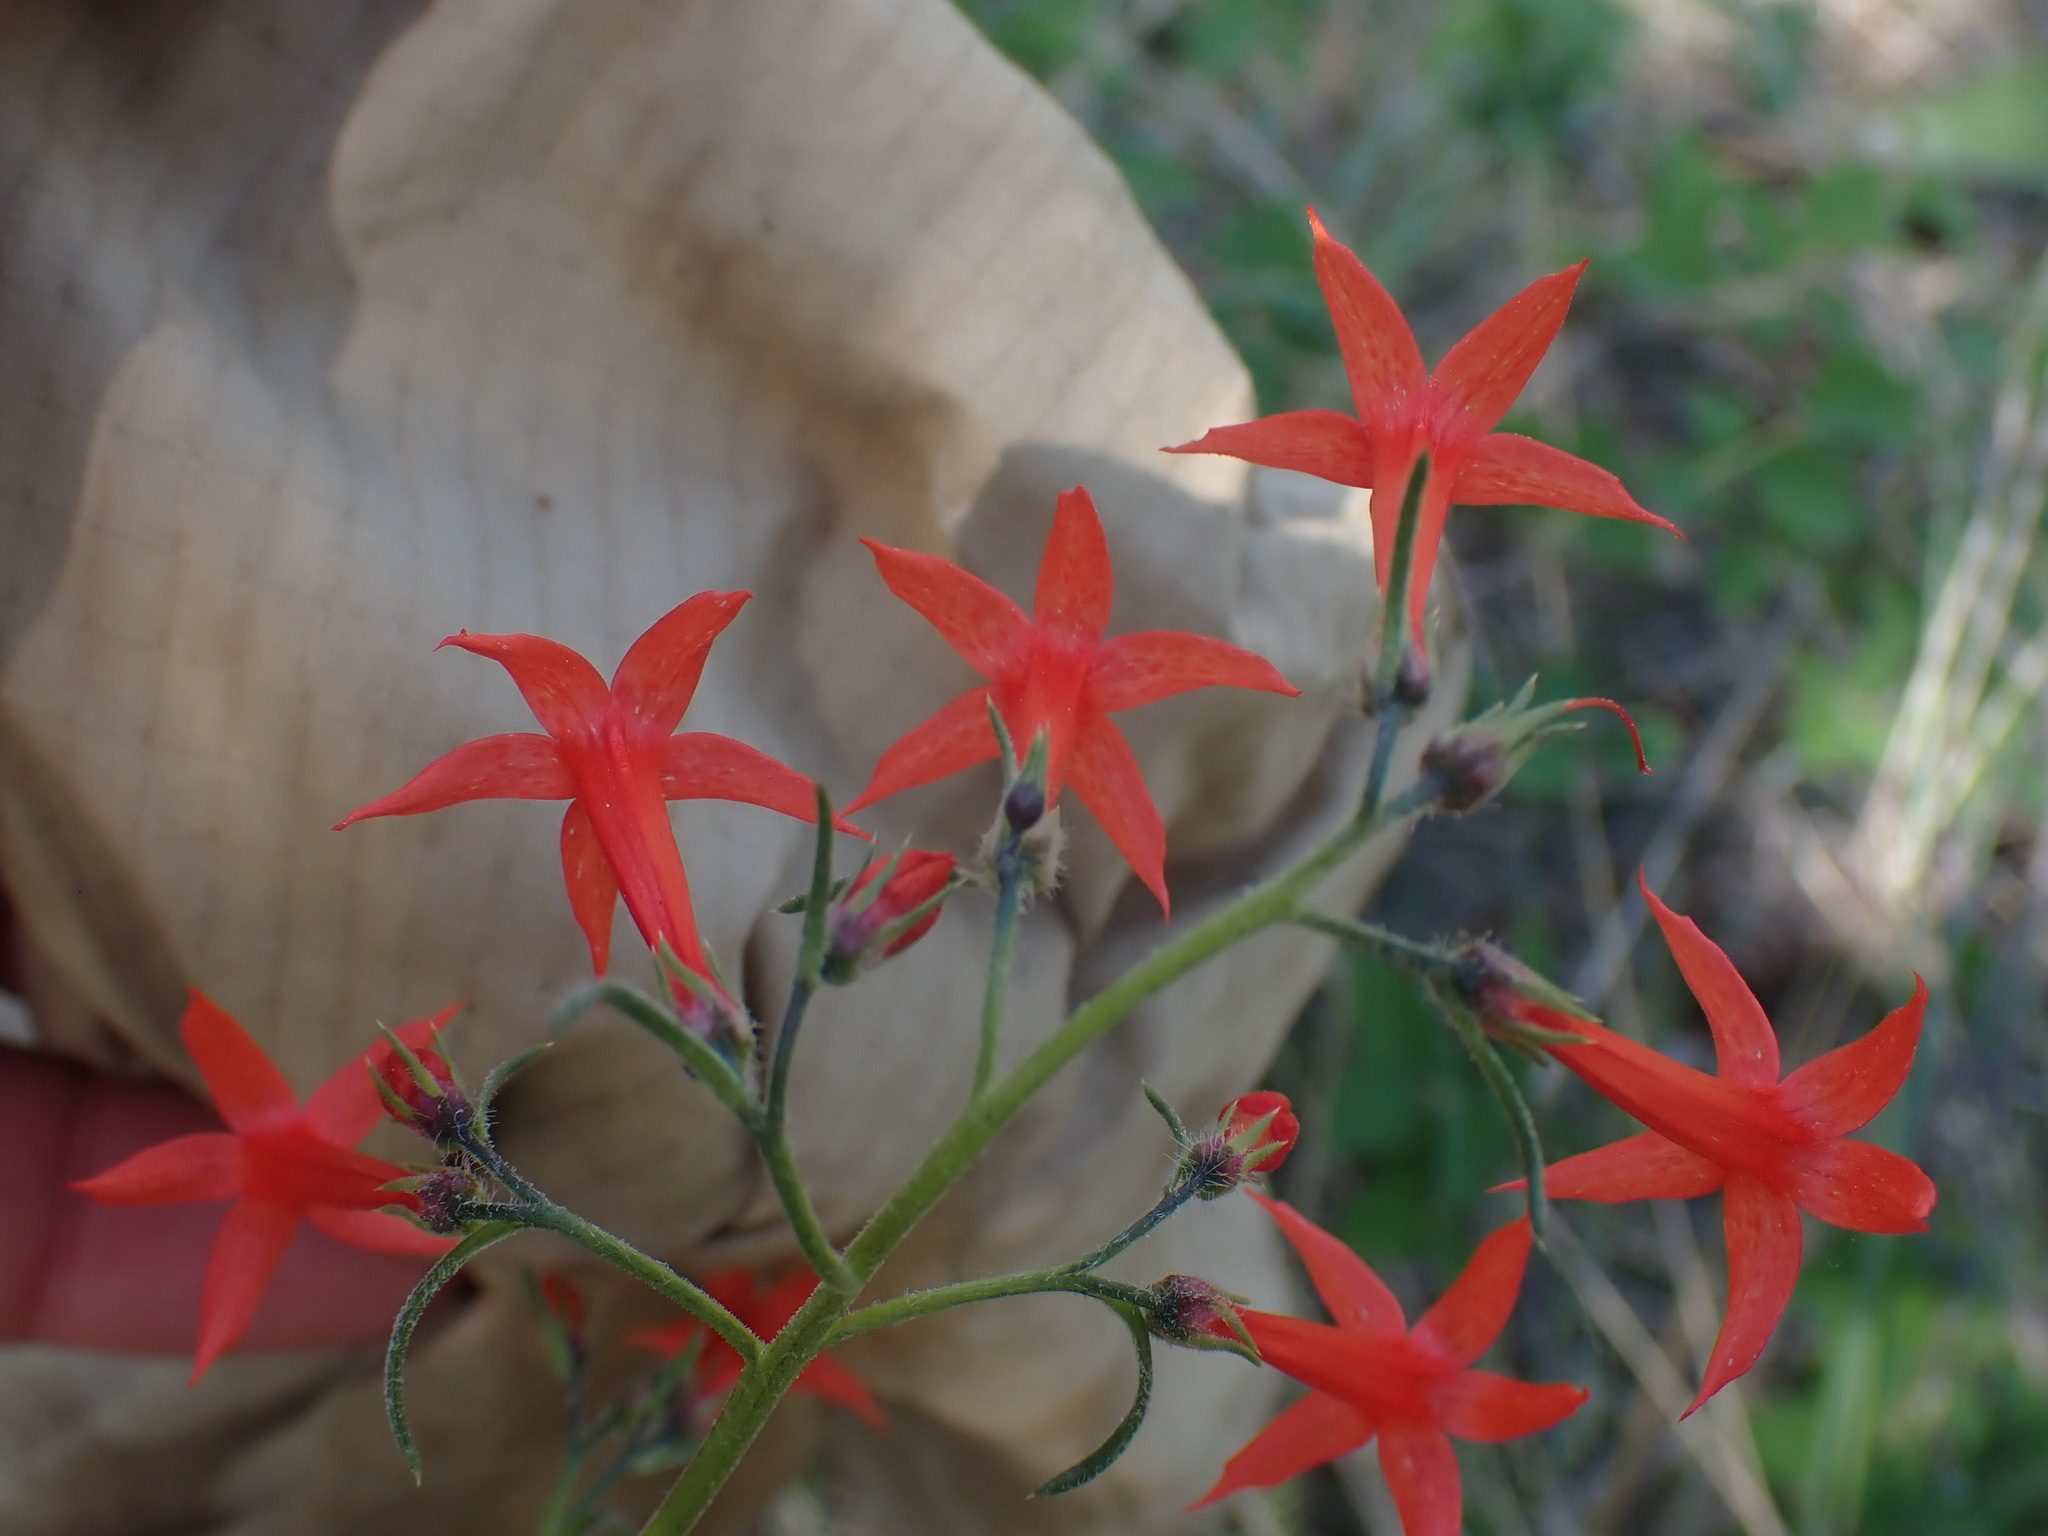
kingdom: Plantae
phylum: Tracheophyta
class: Magnoliopsida
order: Ericales
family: Polemoniaceae
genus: Ipomopsis
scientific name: Ipomopsis aggregata
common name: Scarlet gilia
